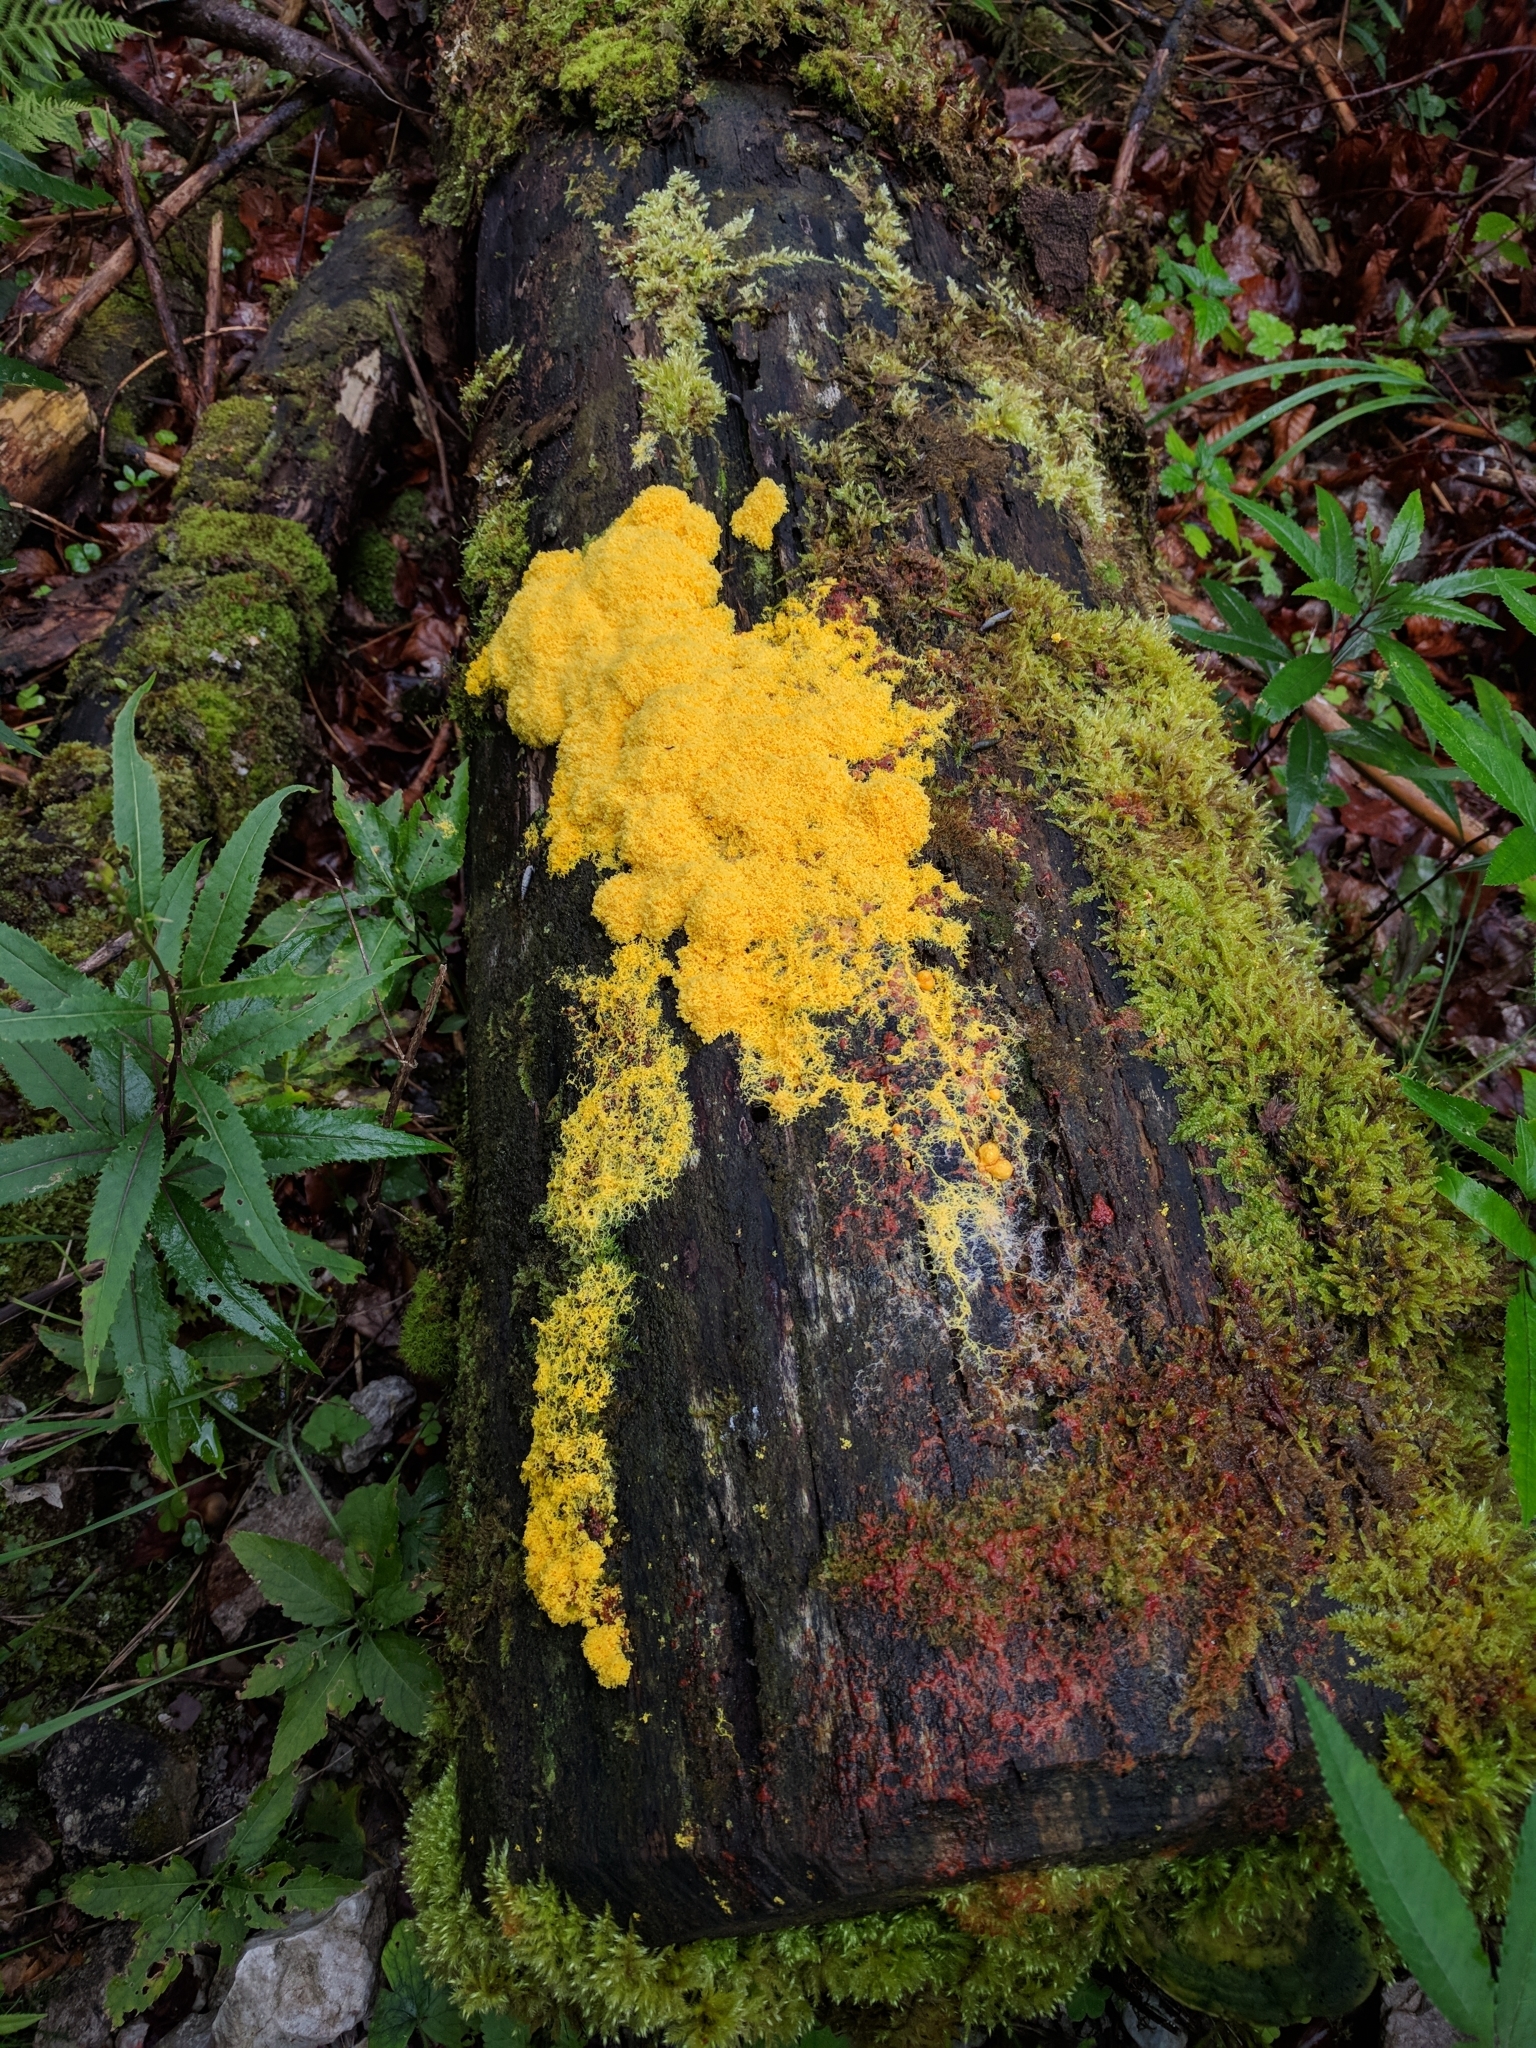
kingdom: Protozoa
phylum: Mycetozoa
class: Myxomycetes
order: Physarales
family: Physaraceae
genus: Fuligo
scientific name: Fuligo septica
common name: Dog vomit slime mold
